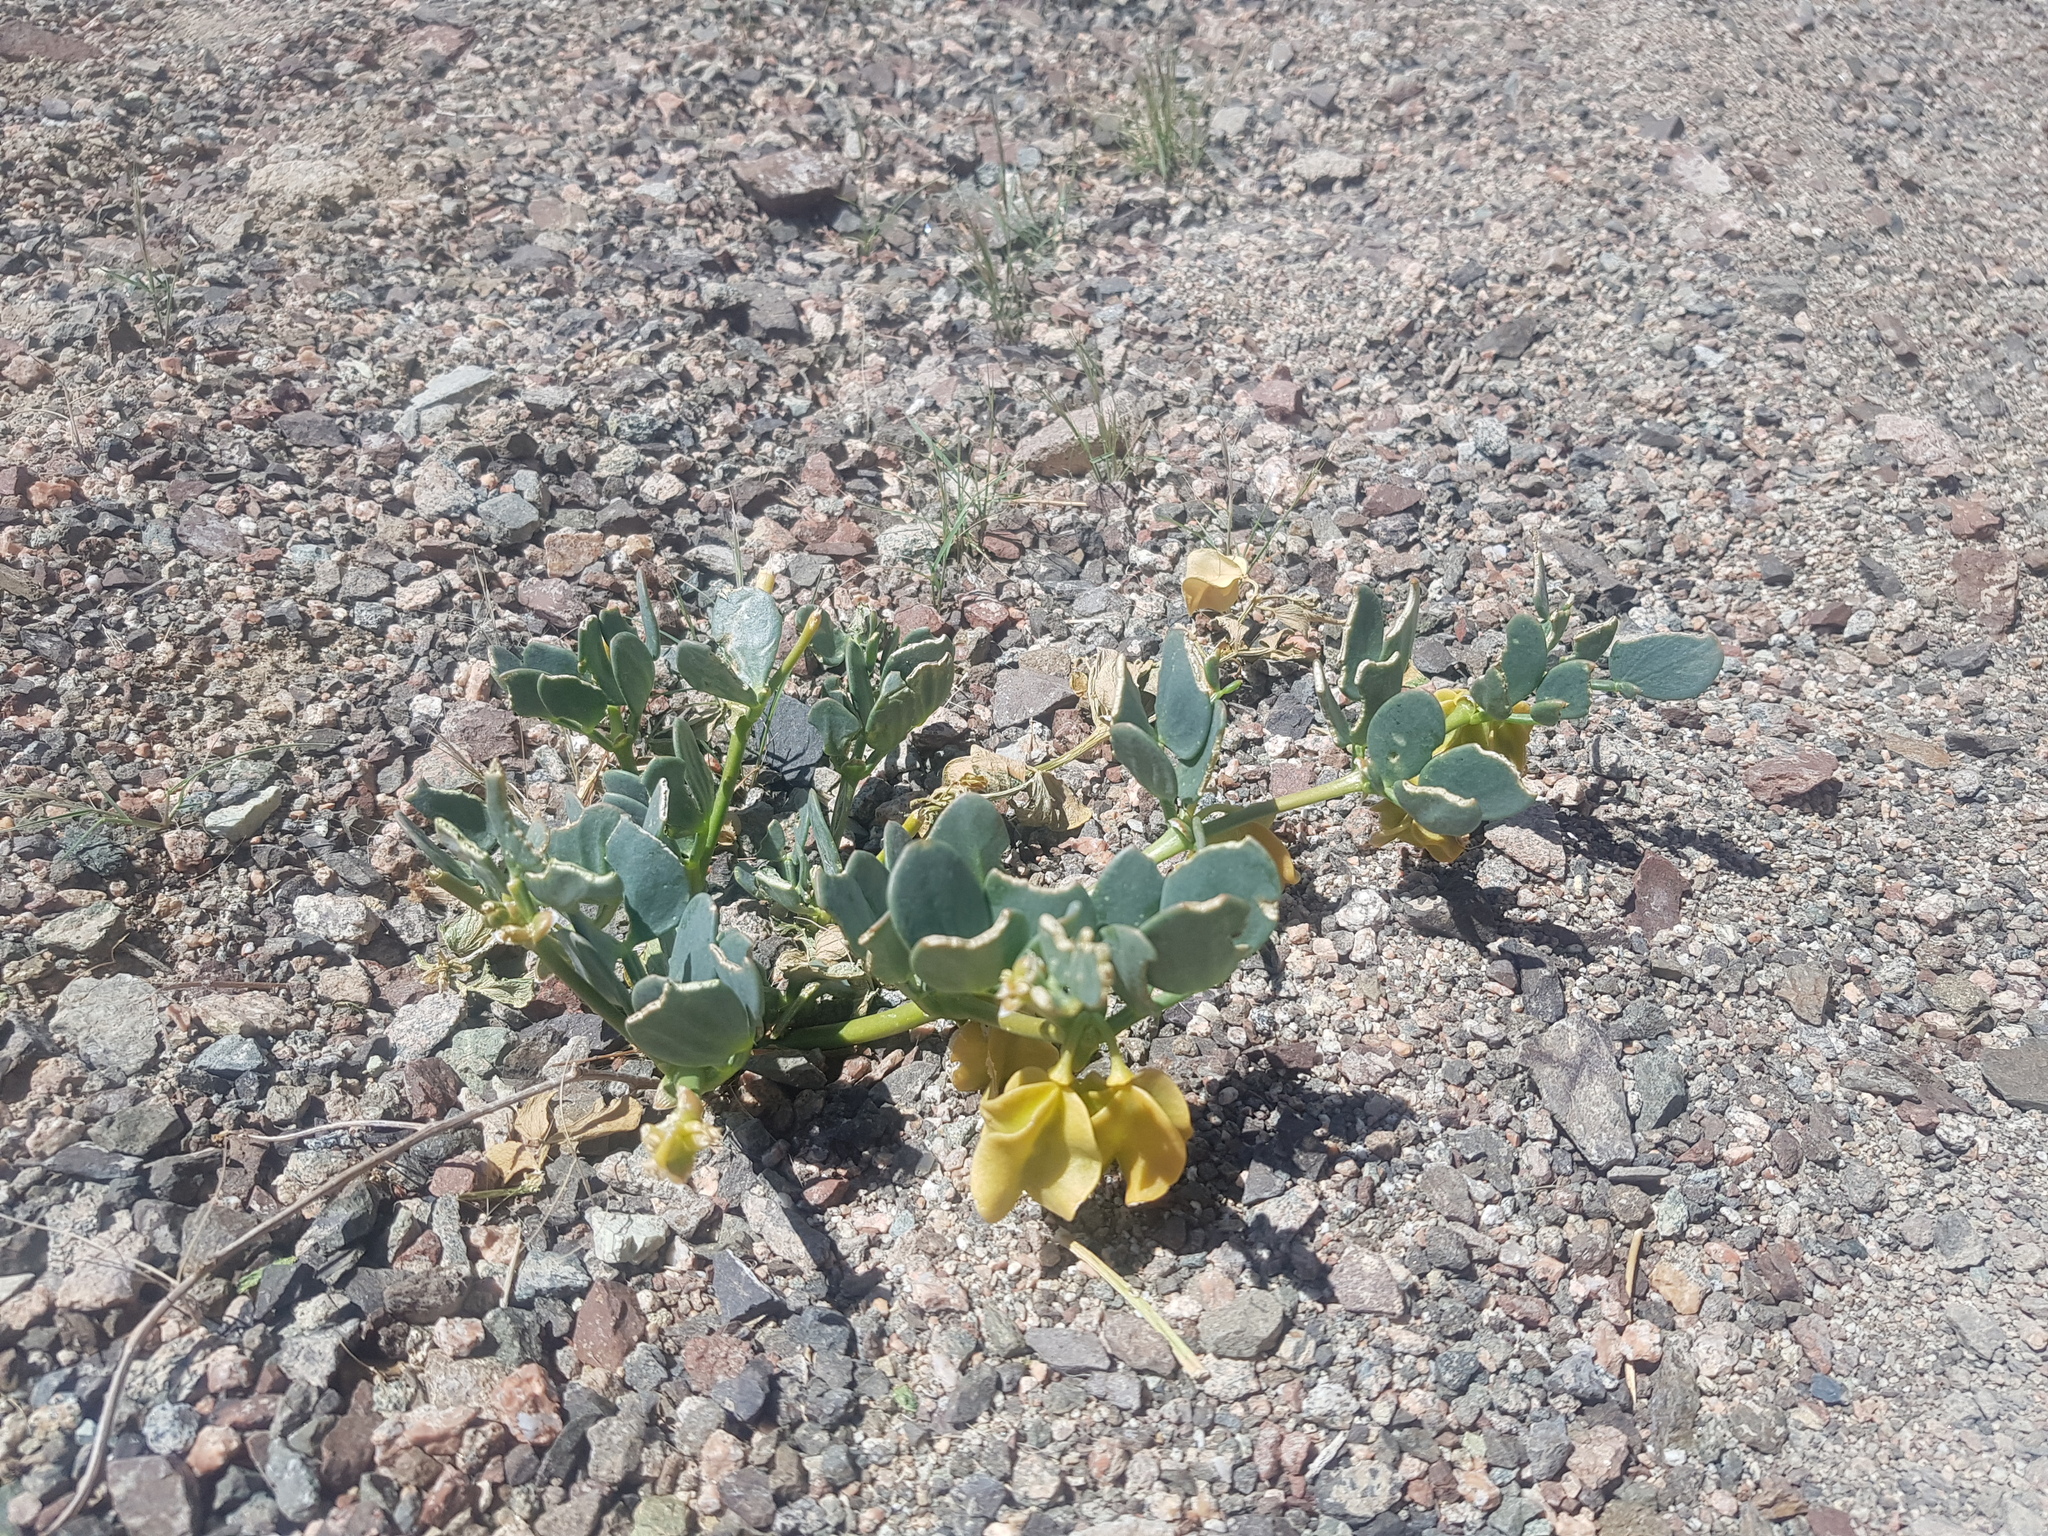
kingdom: Plantae
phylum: Tracheophyta
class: Magnoliopsida
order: Zygophyllales
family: Zygophyllaceae
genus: Zygophyllum
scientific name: Zygophyllum potaninii
